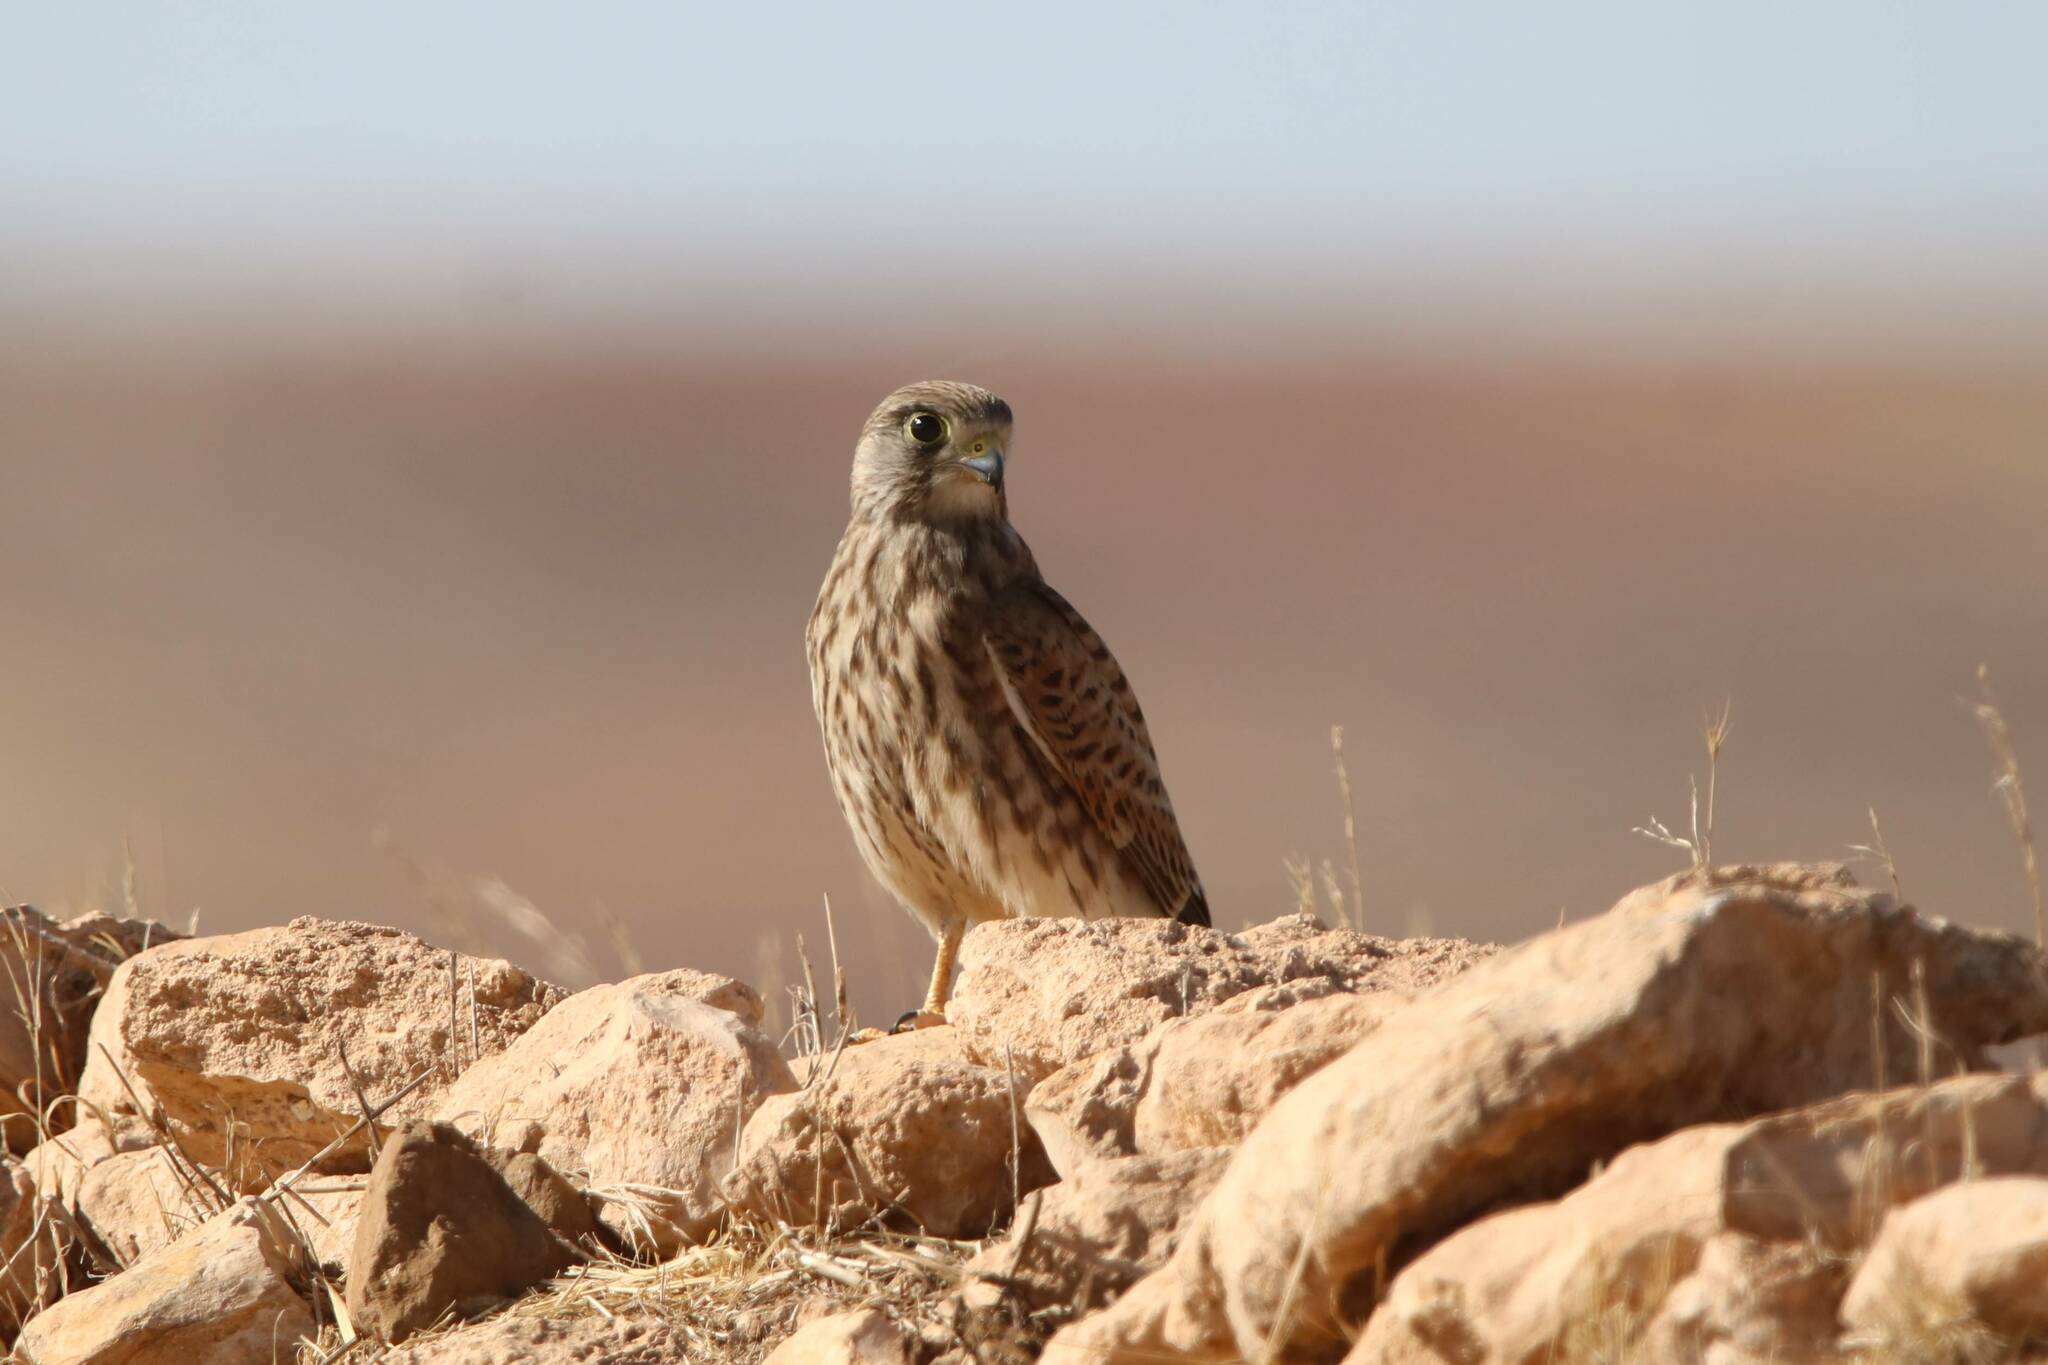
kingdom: Animalia
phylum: Chordata
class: Aves
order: Falconiformes
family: Falconidae
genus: Falco
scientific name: Falco tinnunculus
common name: Common kestrel
